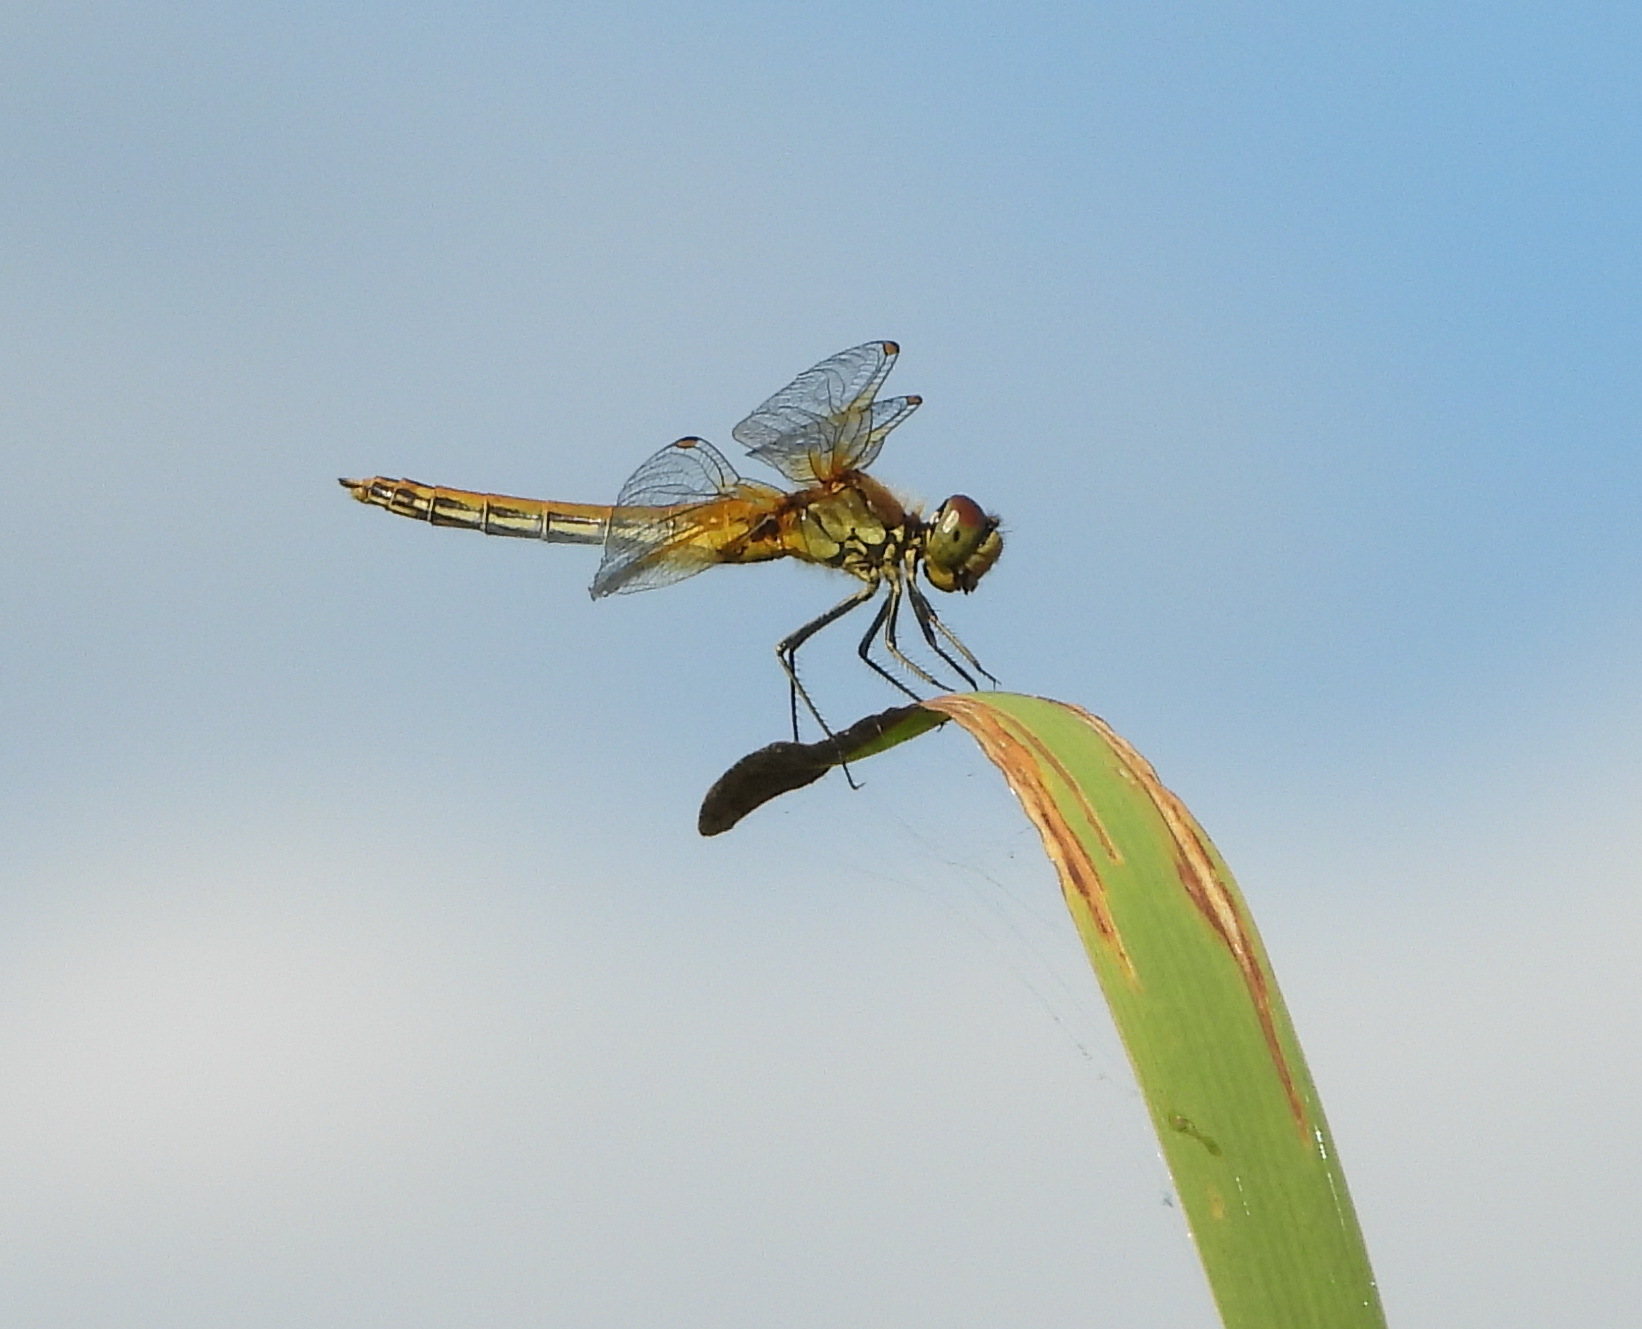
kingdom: Animalia
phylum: Arthropoda
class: Insecta
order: Odonata
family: Libellulidae
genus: Sympetrum
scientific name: Sympetrum flaveolum
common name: Yellow-winged darter
